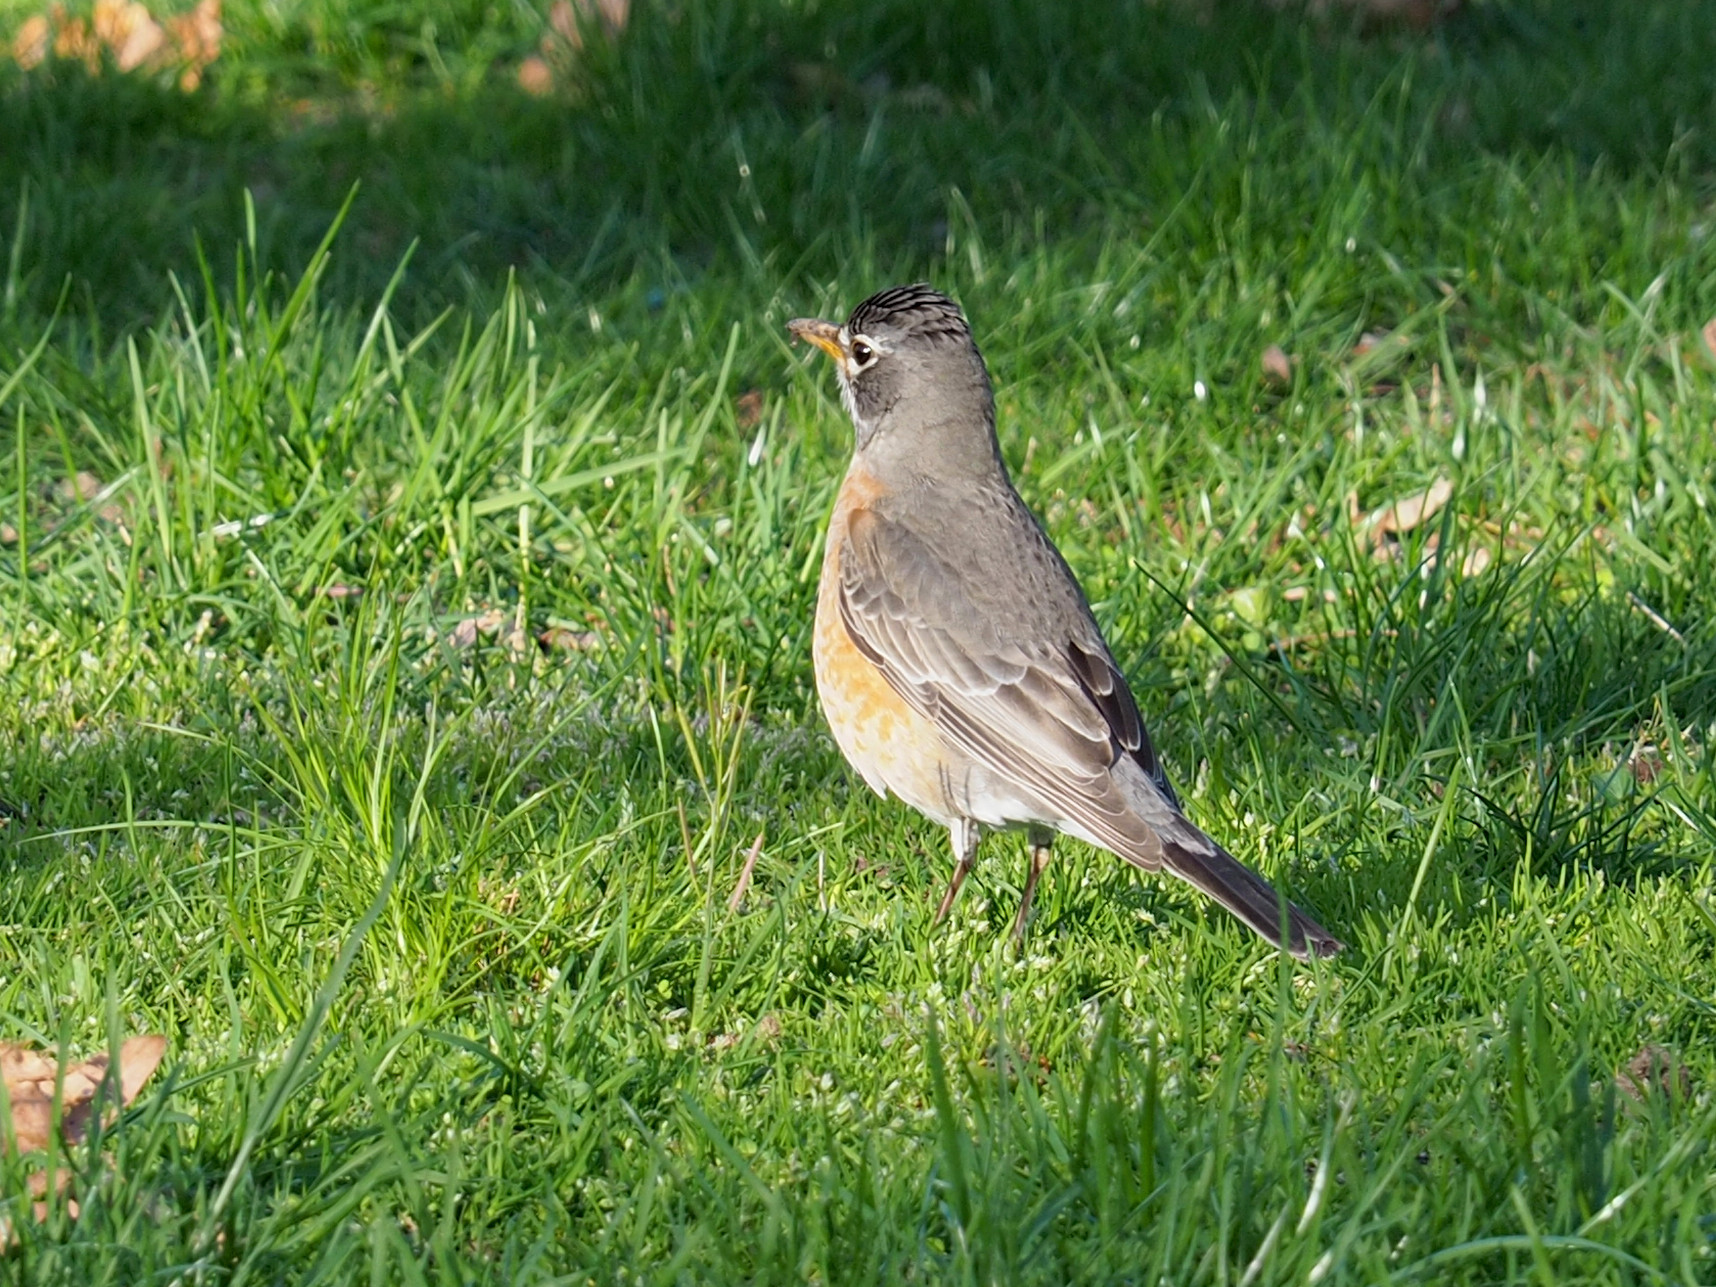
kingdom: Animalia
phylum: Chordata
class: Aves
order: Passeriformes
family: Turdidae
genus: Turdus
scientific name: Turdus migratorius
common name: American robin
